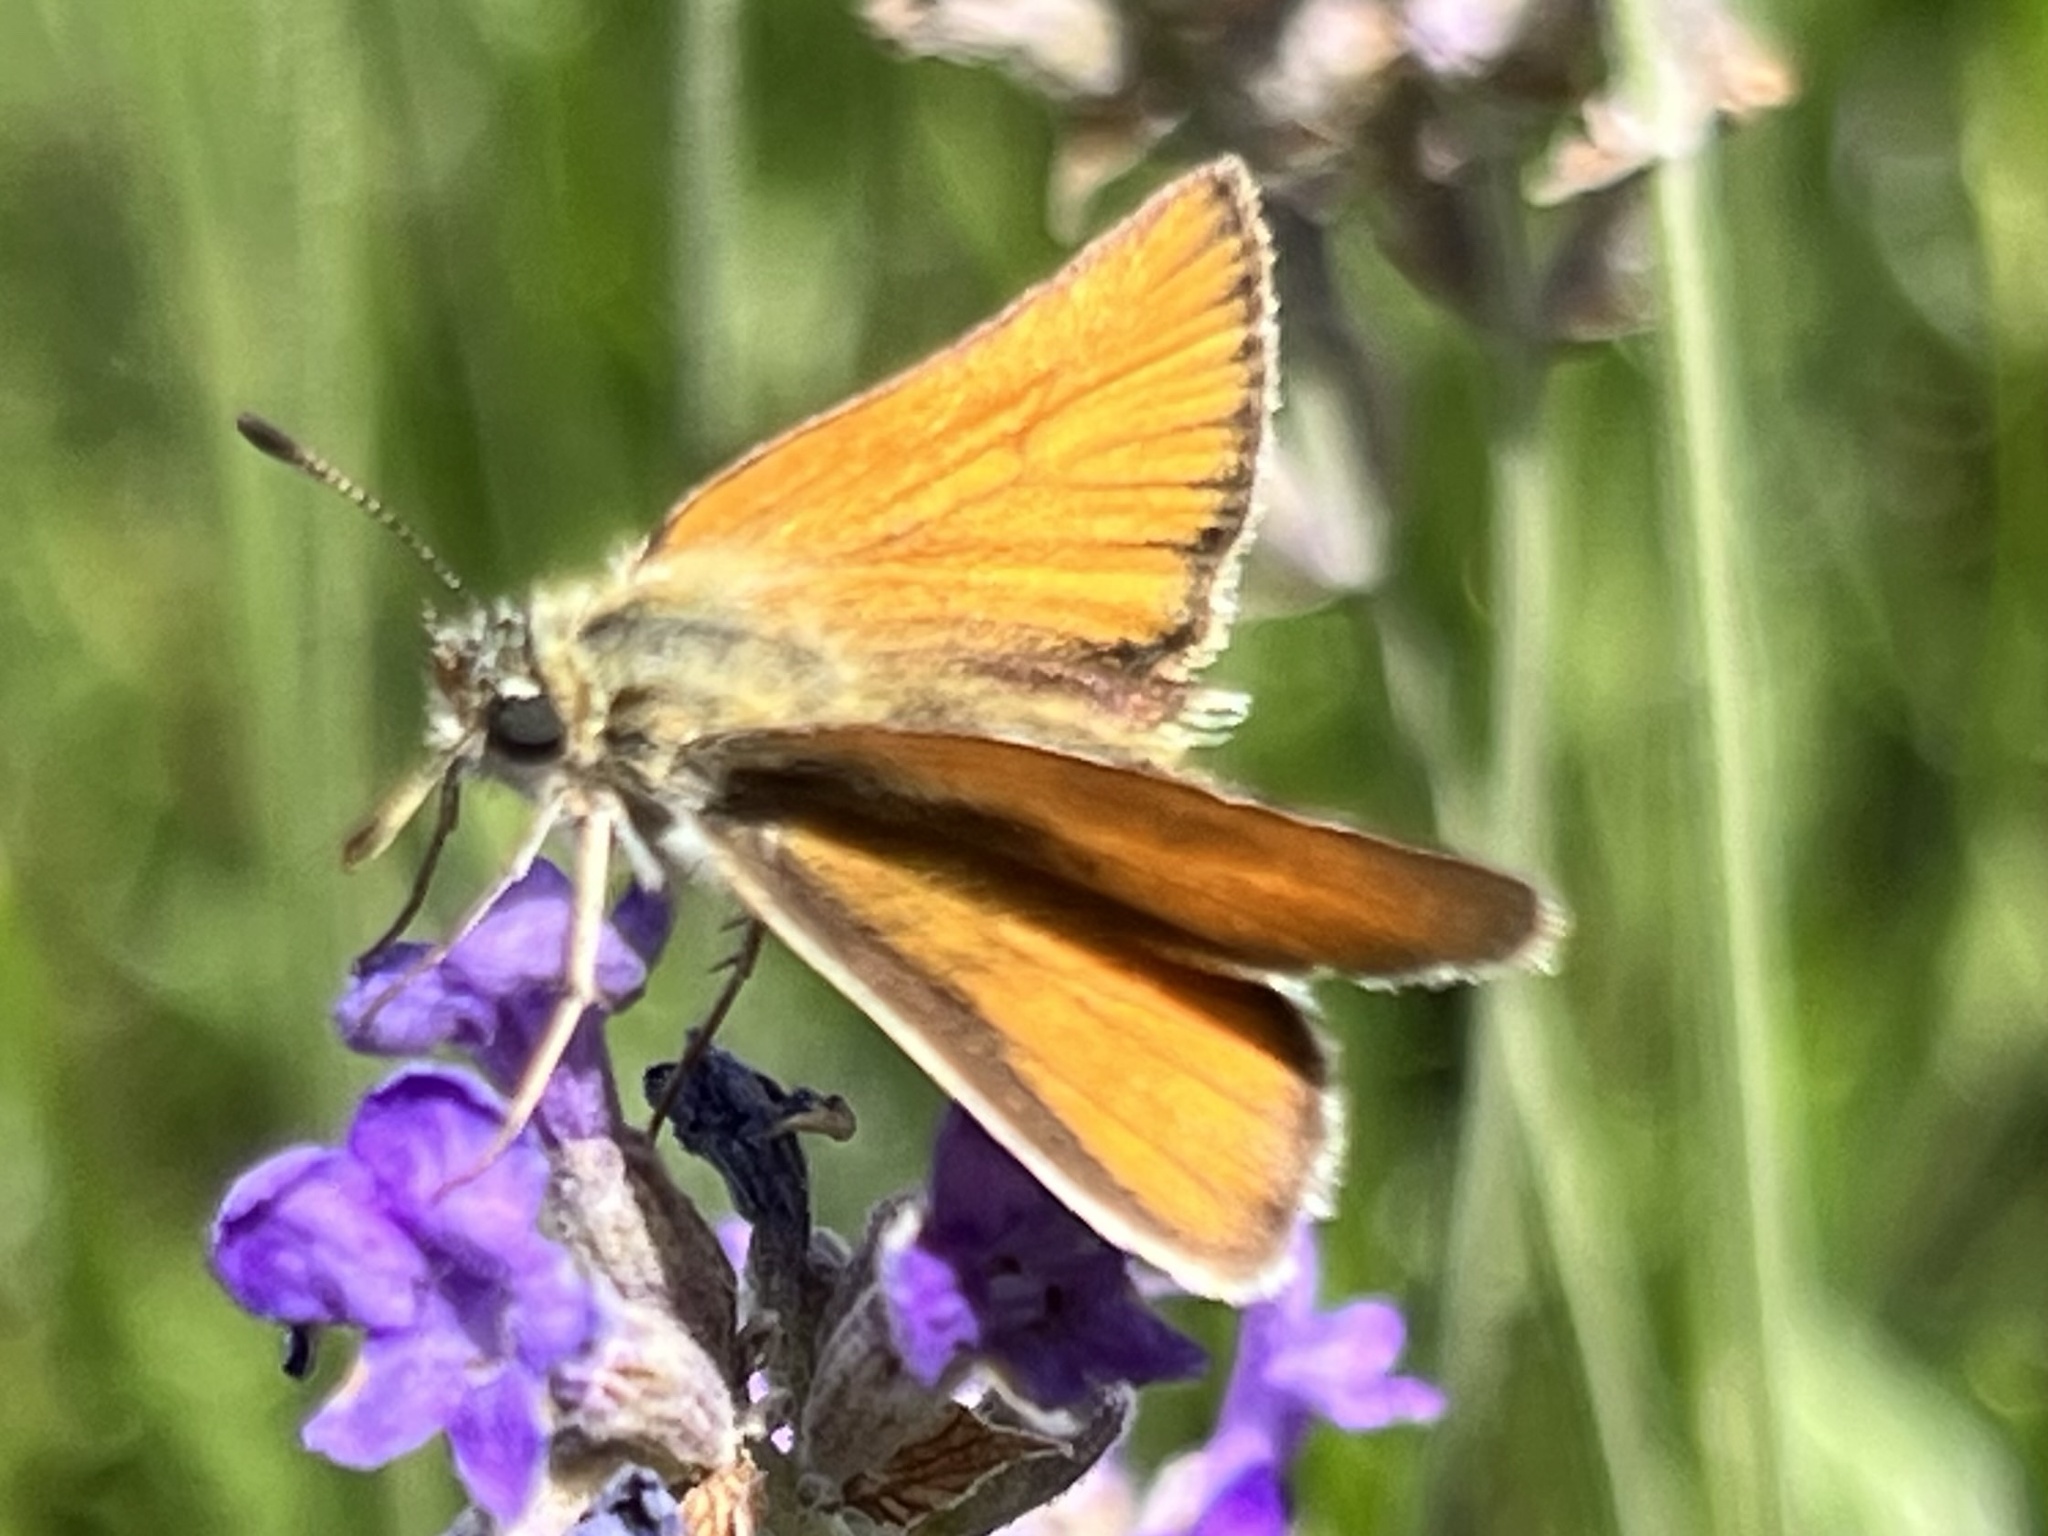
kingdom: Animalia
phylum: Arthropoda
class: Insecta
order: Lepidoptera
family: Hesperiidae
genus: Thymelicus
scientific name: Thymelicus lineola
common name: Essex skipper
